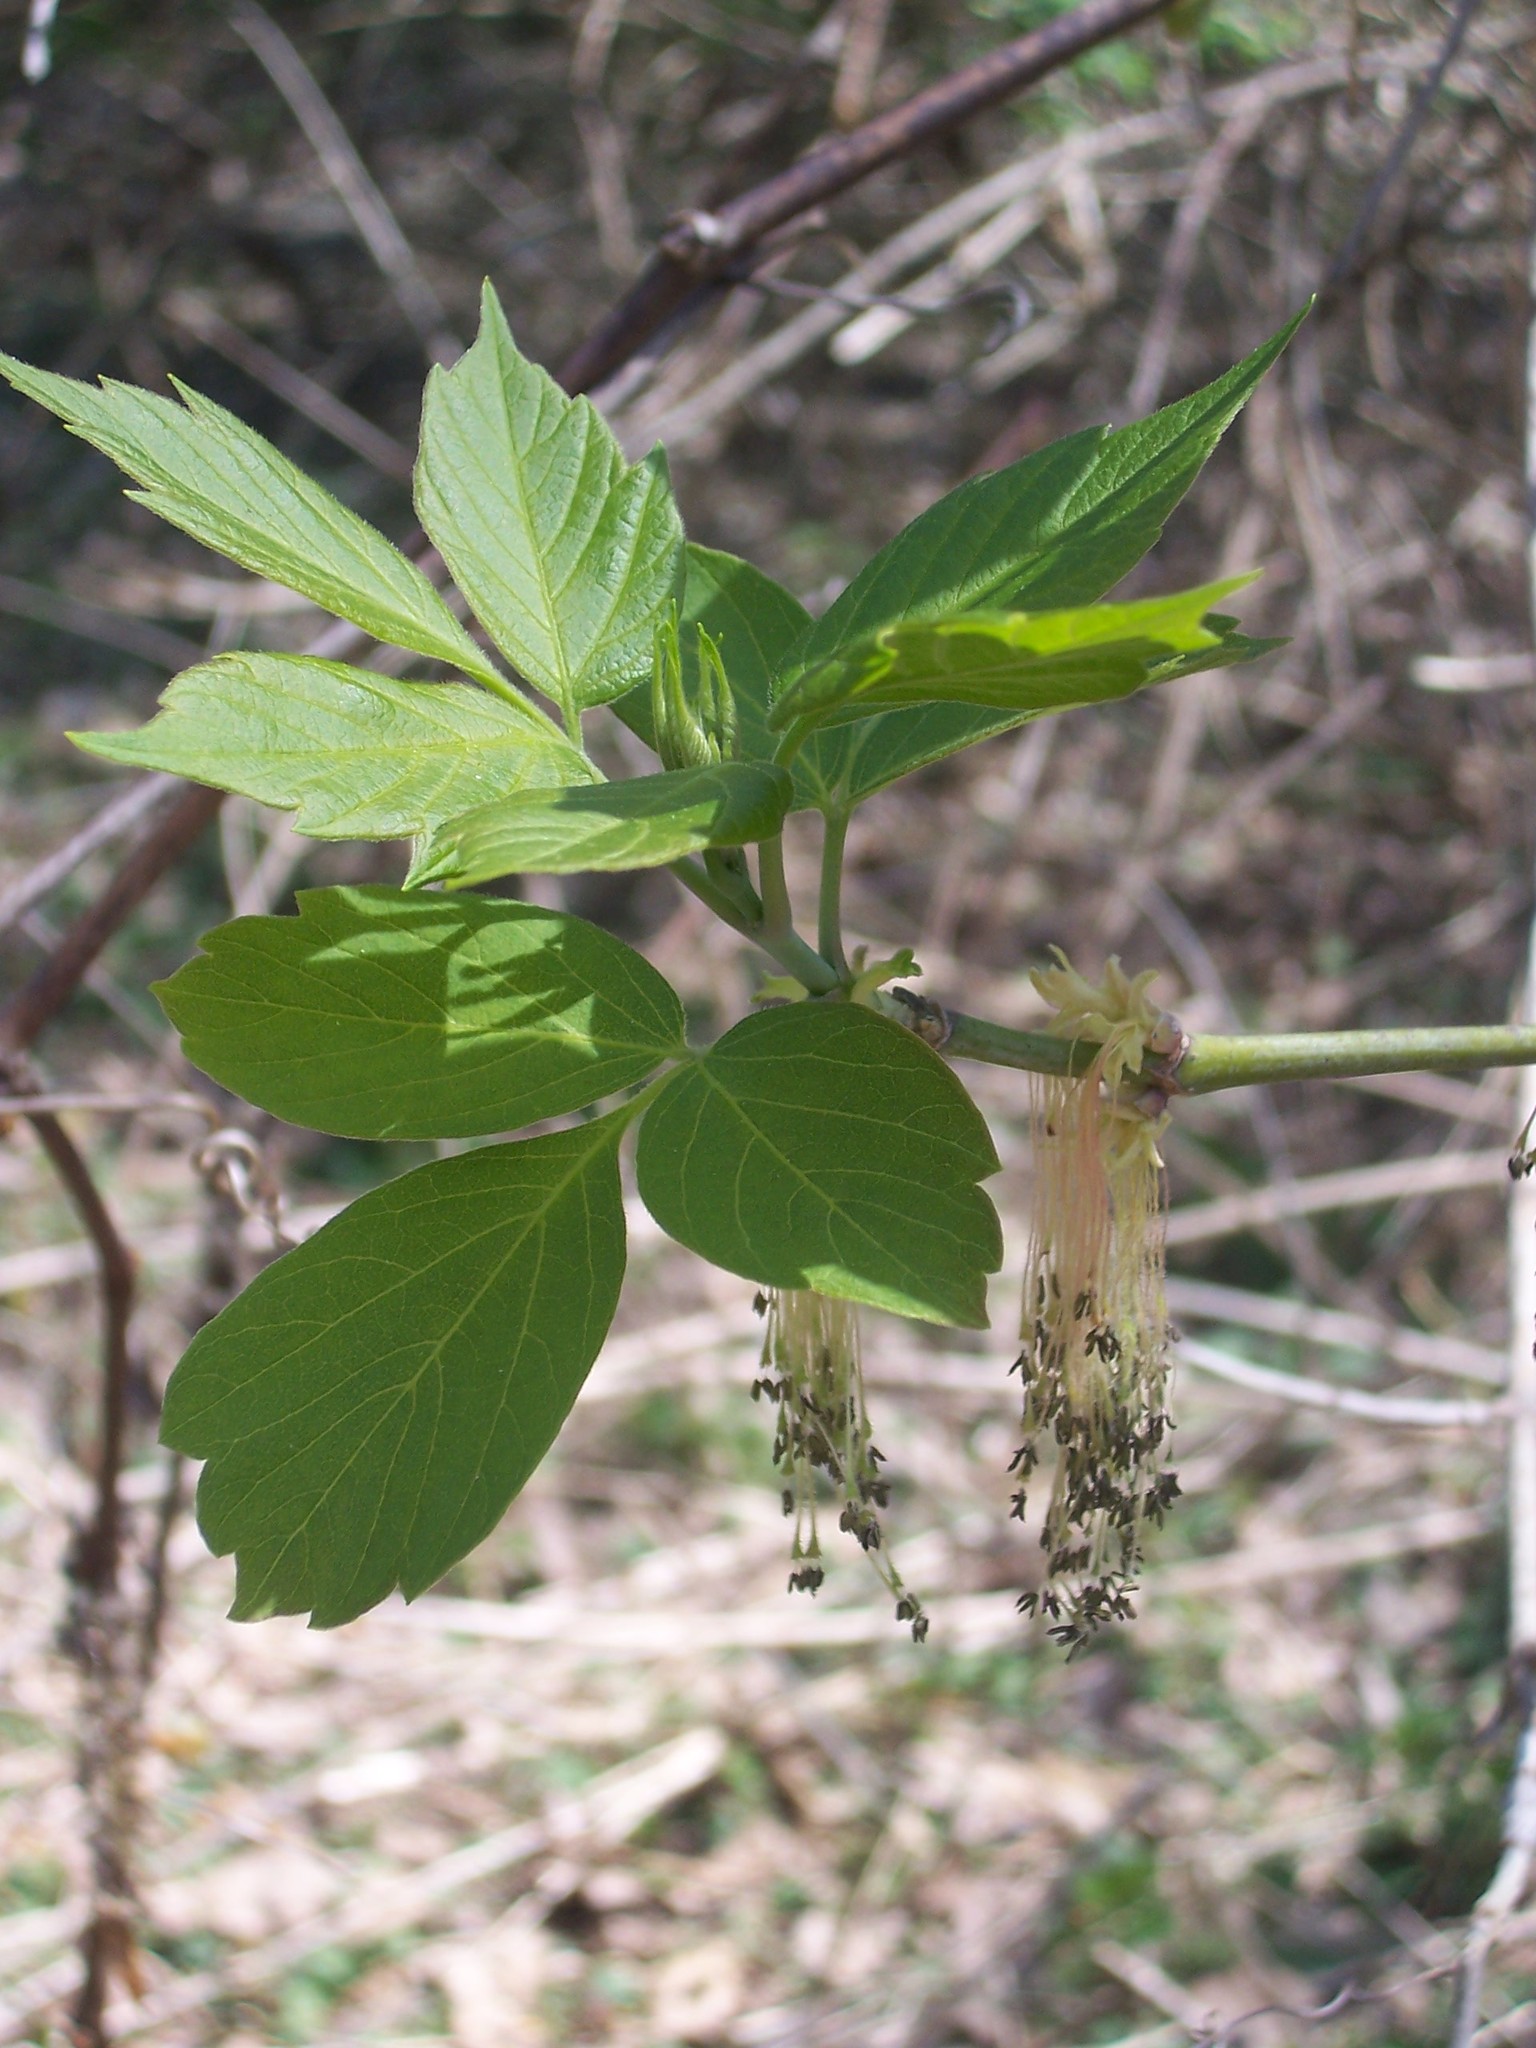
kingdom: Plantae
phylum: Tracheophyta
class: Magnoliopsida
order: Sapindales
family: Sapindaceae
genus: Acer
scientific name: Acer negundo
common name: Ashleaf maple
